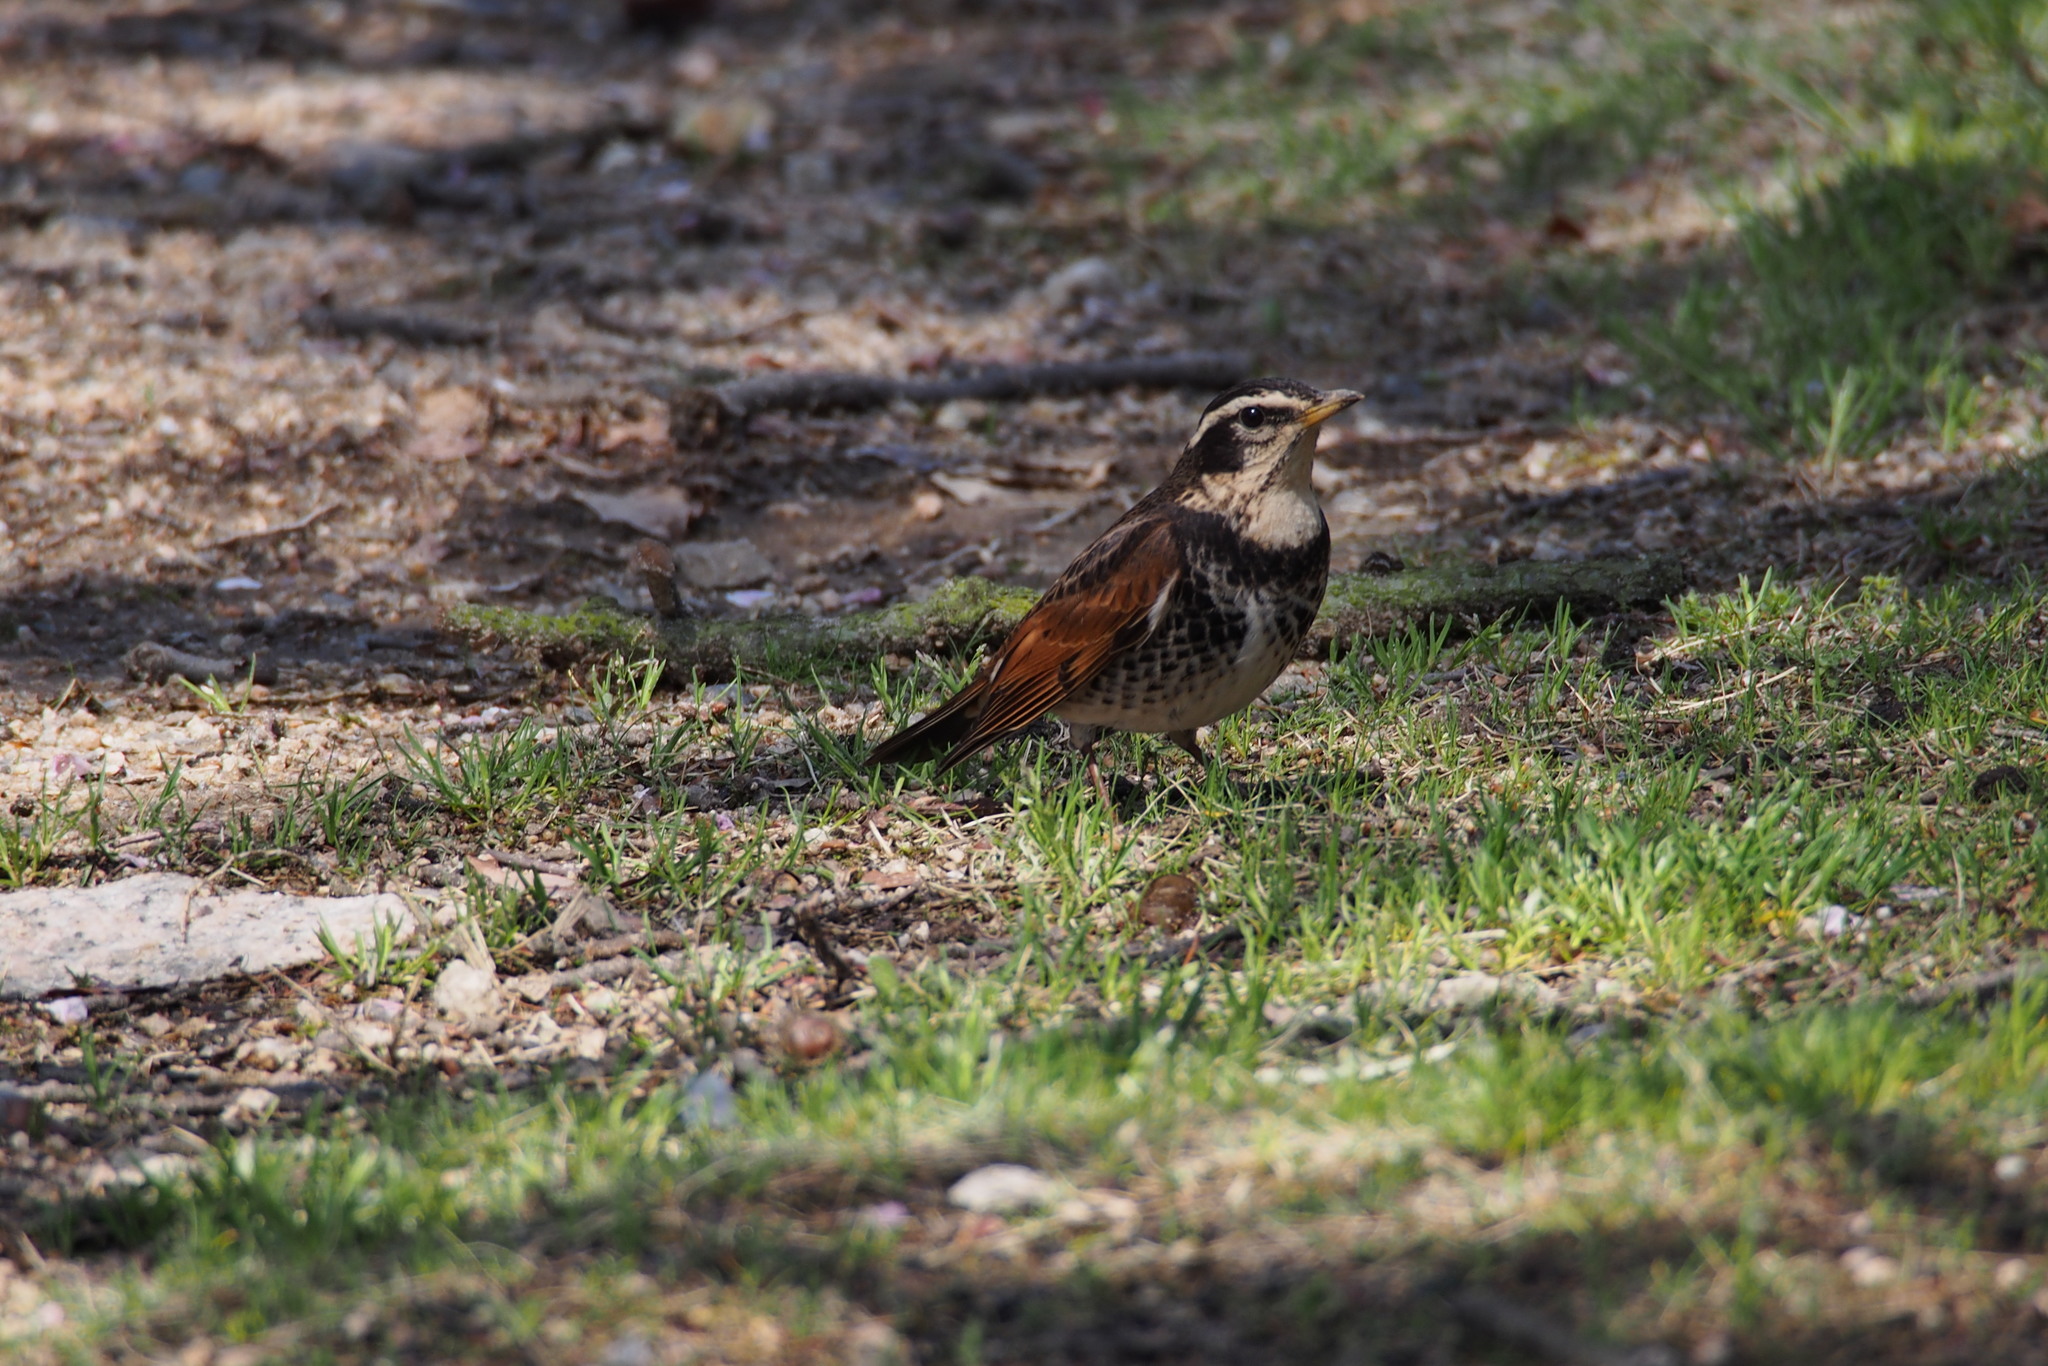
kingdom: Animalia
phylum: Chordata
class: Aves
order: Passeriformes
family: Turdidae
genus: Turdus
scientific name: Turdus eunomus
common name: Dusky thrush
